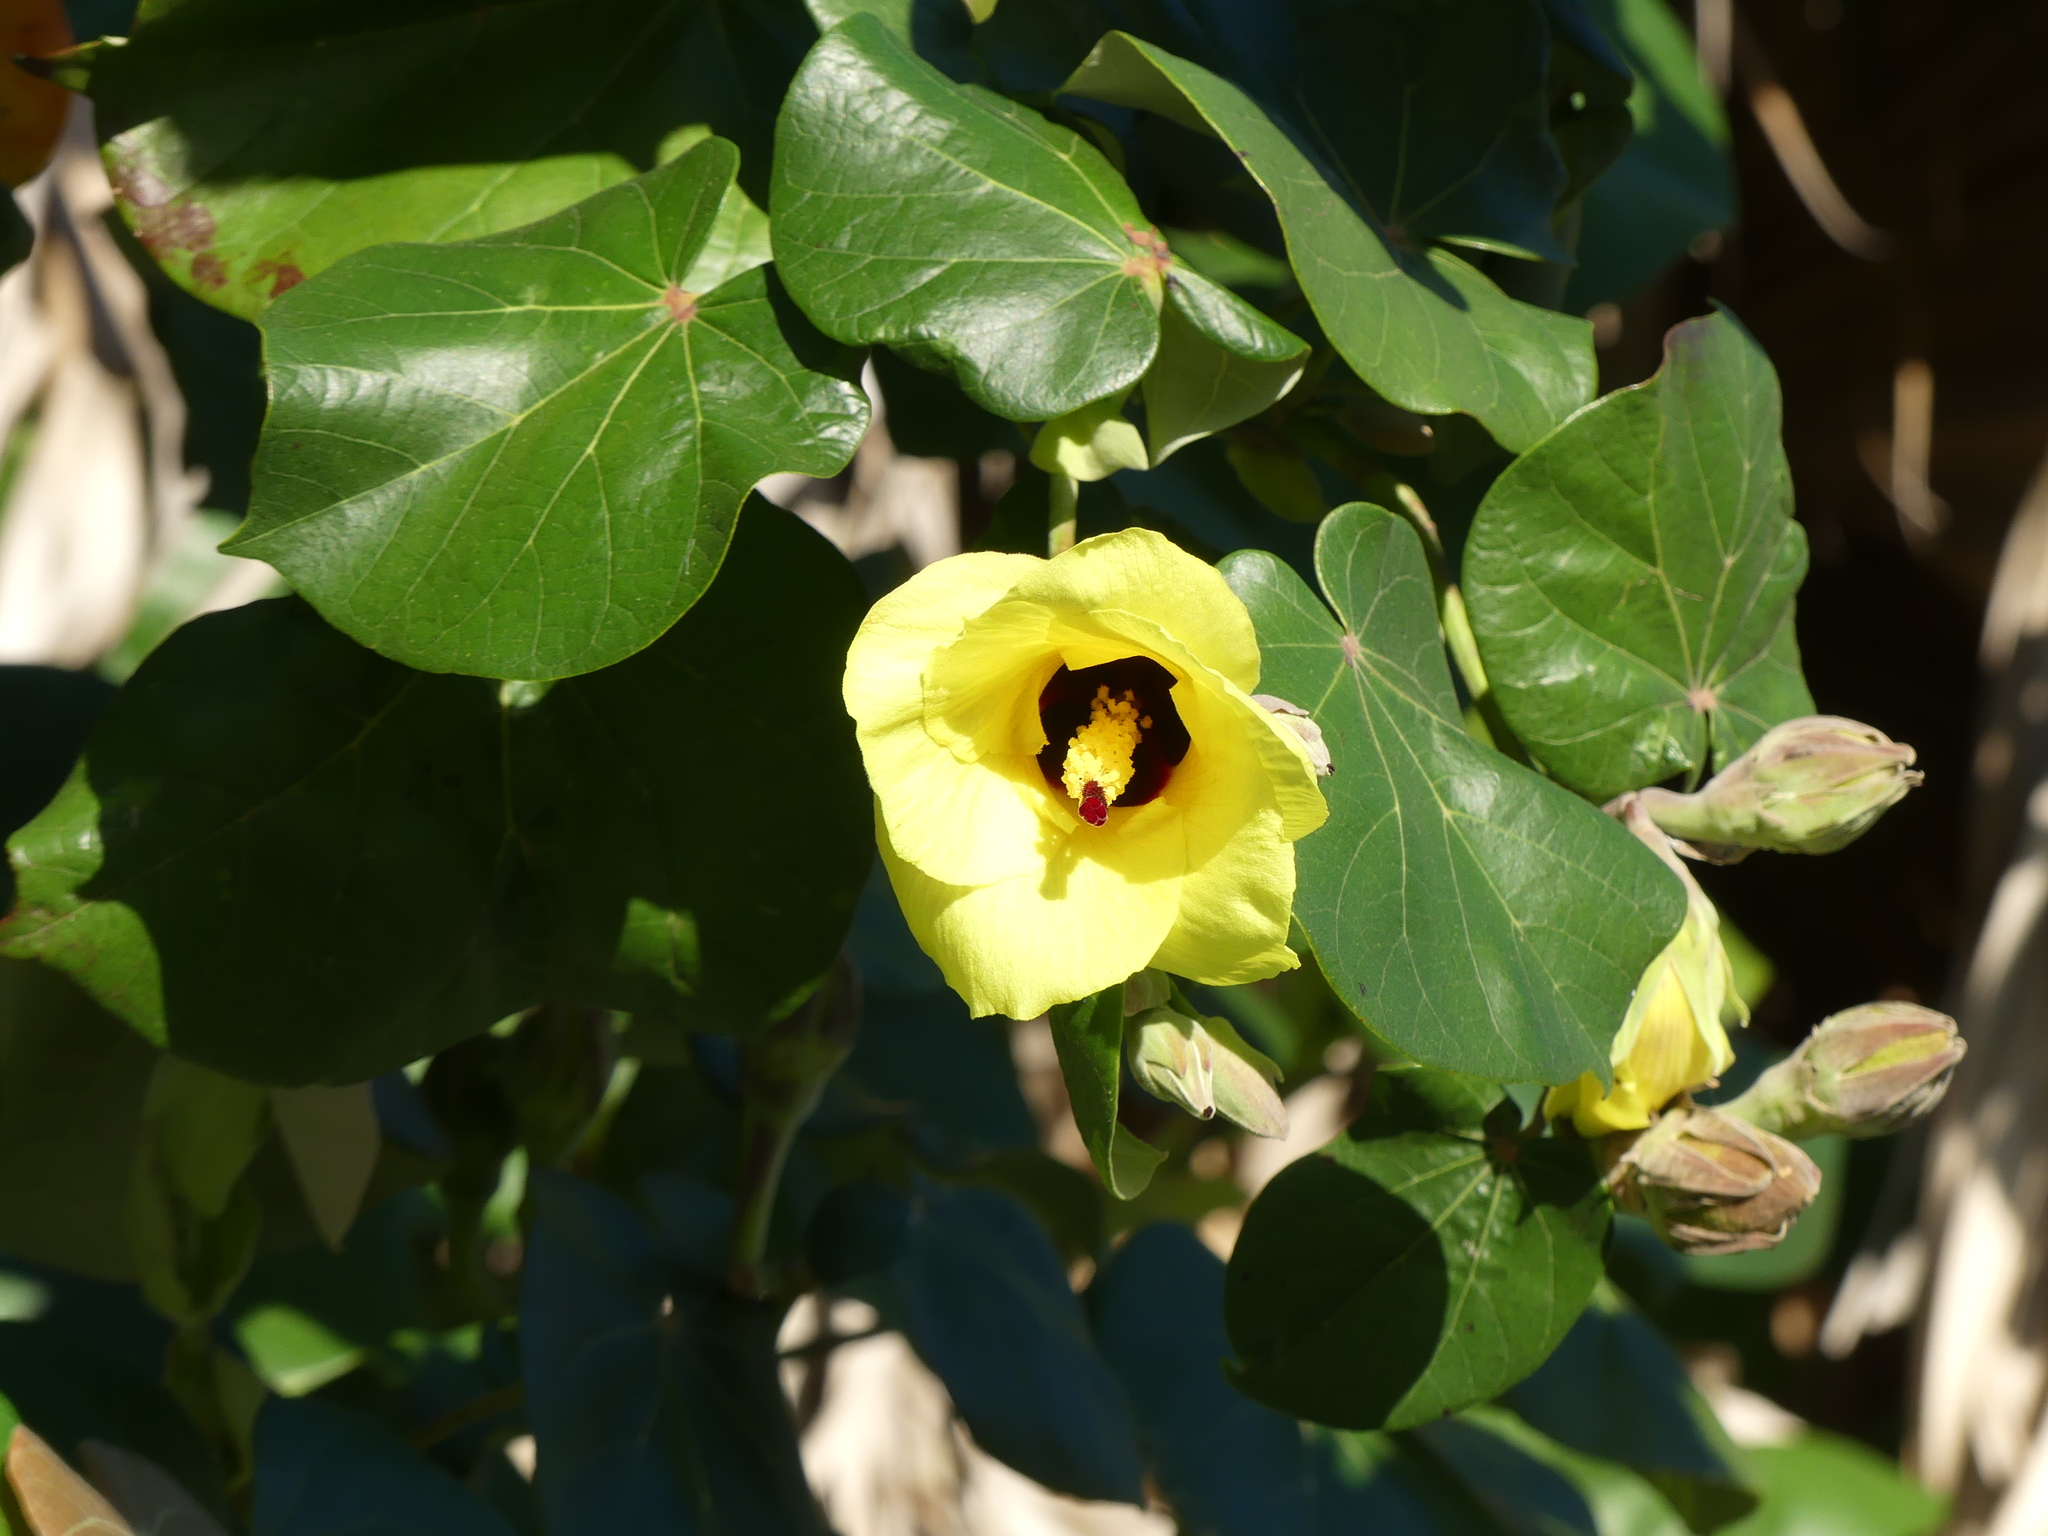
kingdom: Plantae
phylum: Tracheophyta
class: Magnoliopsida
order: Malvales
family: Malvaceae
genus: Talipariti
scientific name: Talipariti tiliaceum
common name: Sea hibiscus
